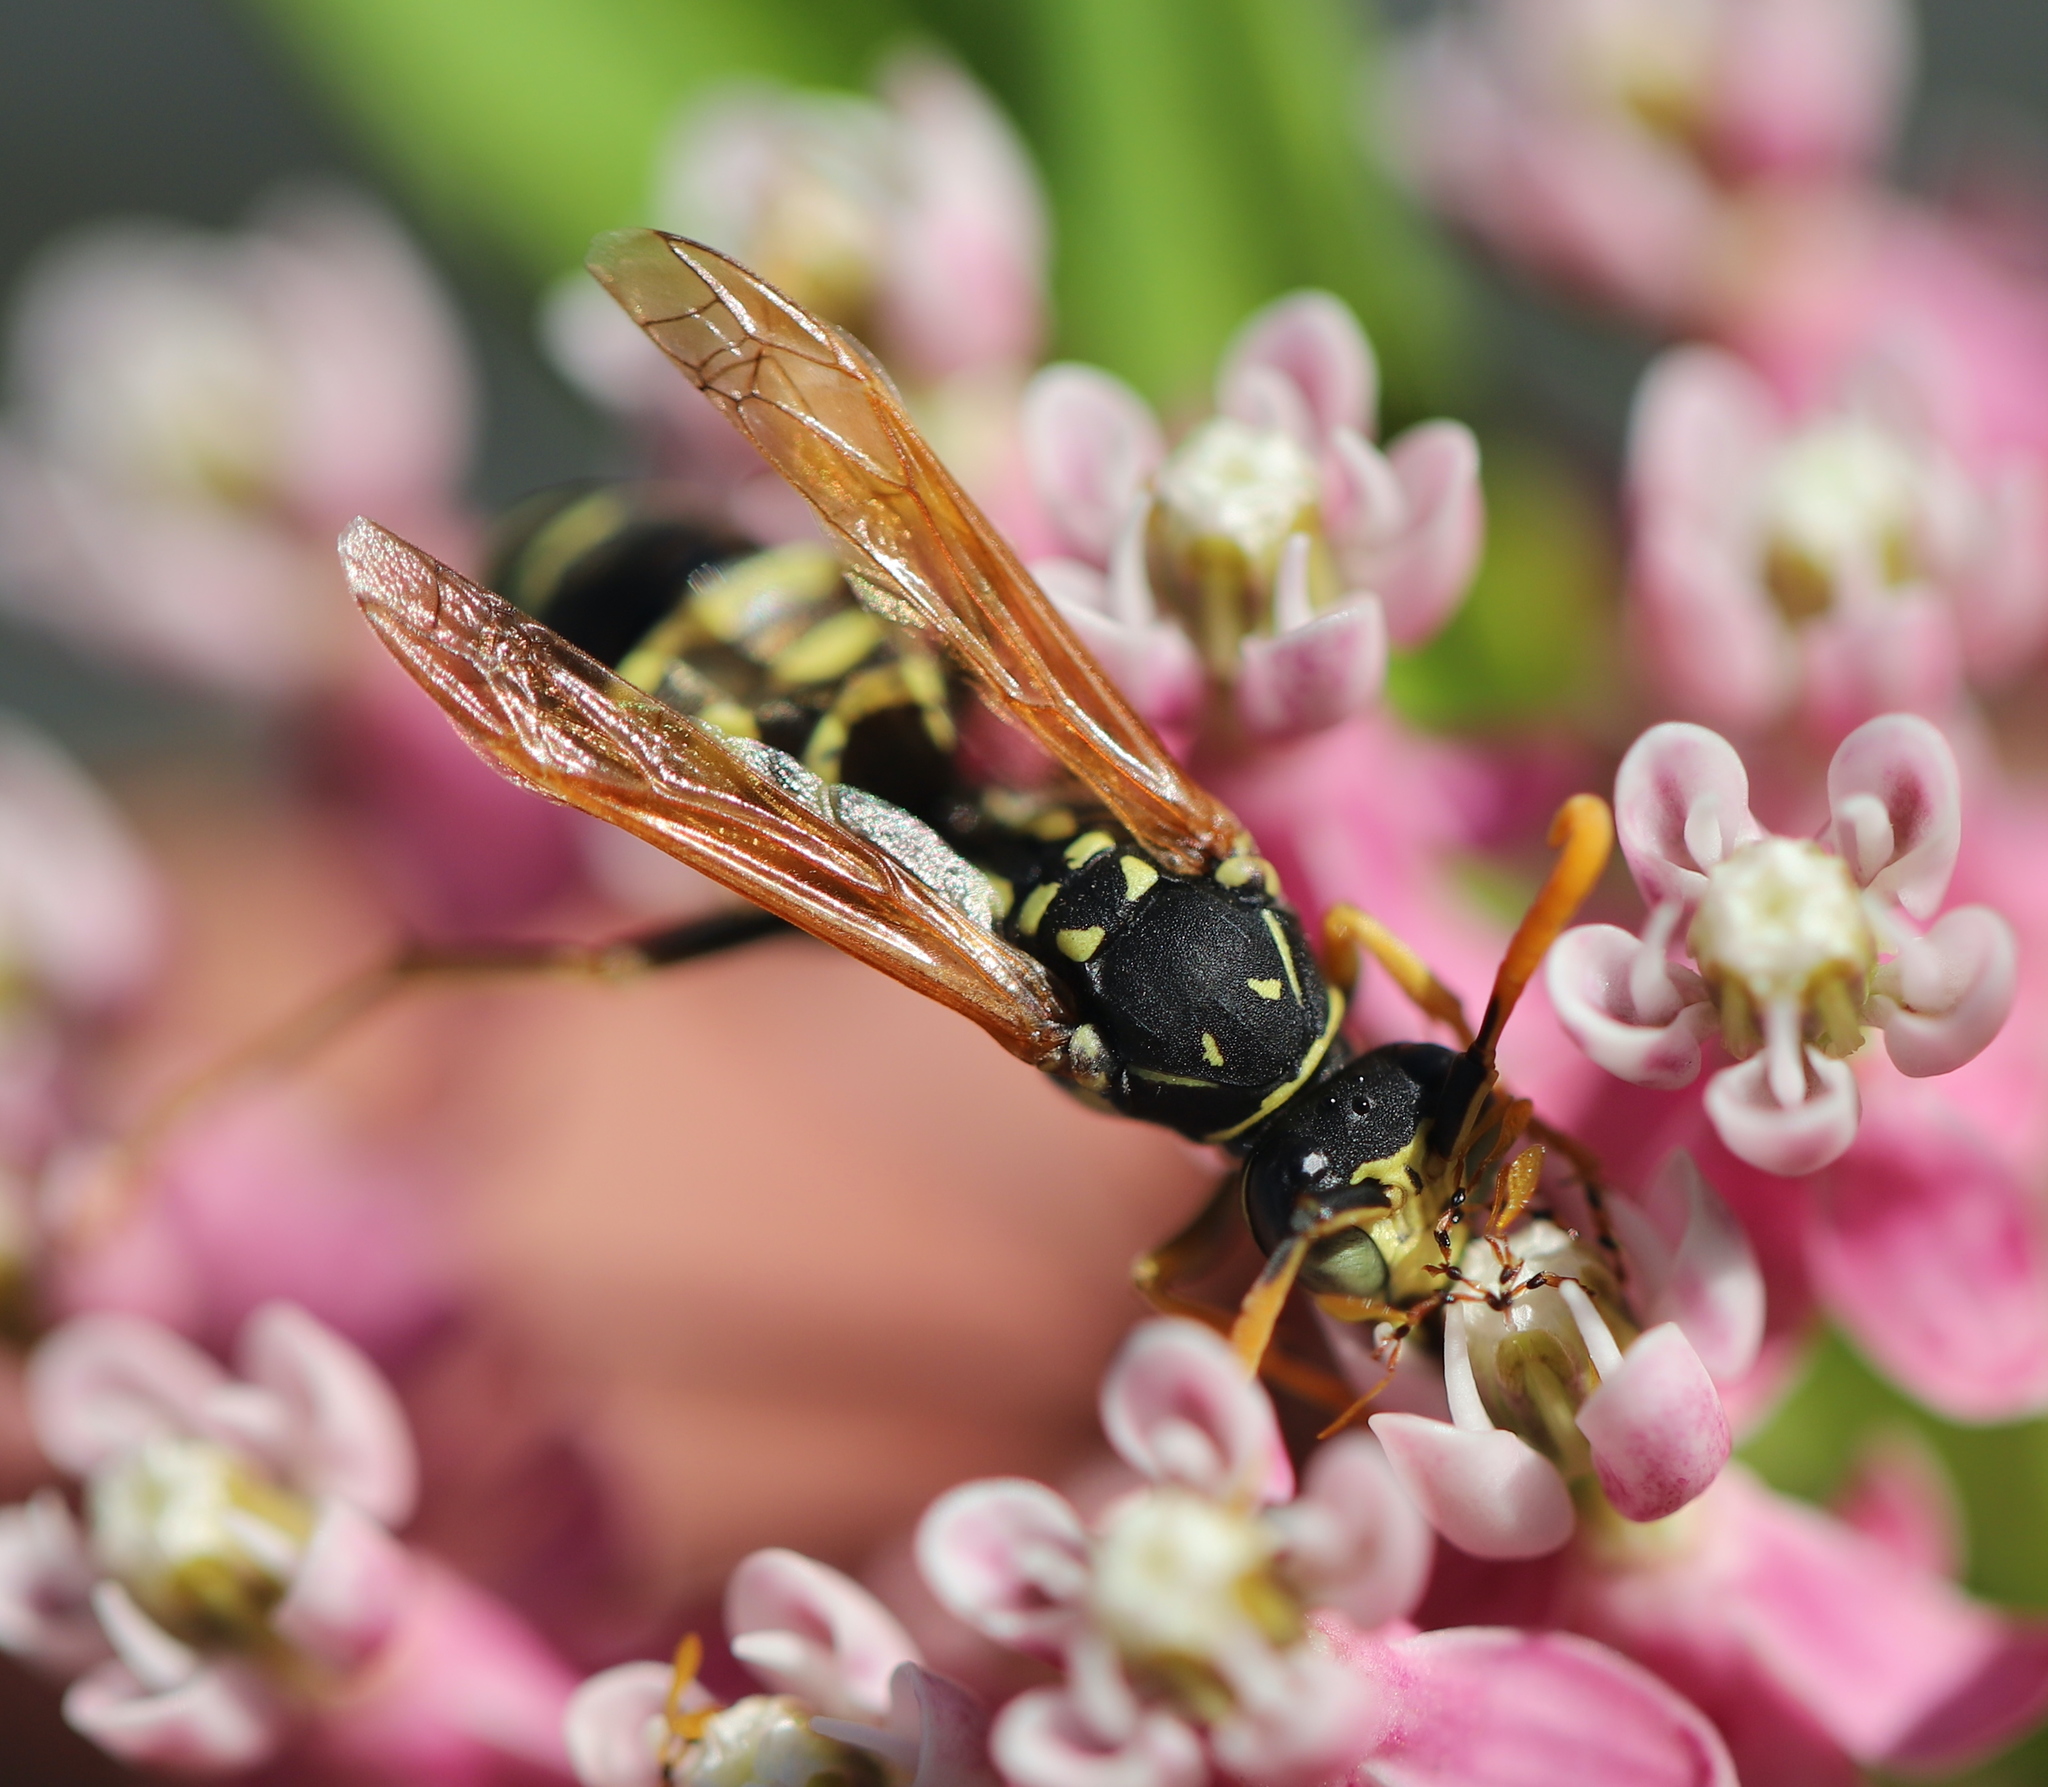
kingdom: Animalia
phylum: Arthropoda
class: Insecta
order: Hymenoptera
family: Eumenidae
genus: Polistes
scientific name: Polistes dominula
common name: Paper wasp
